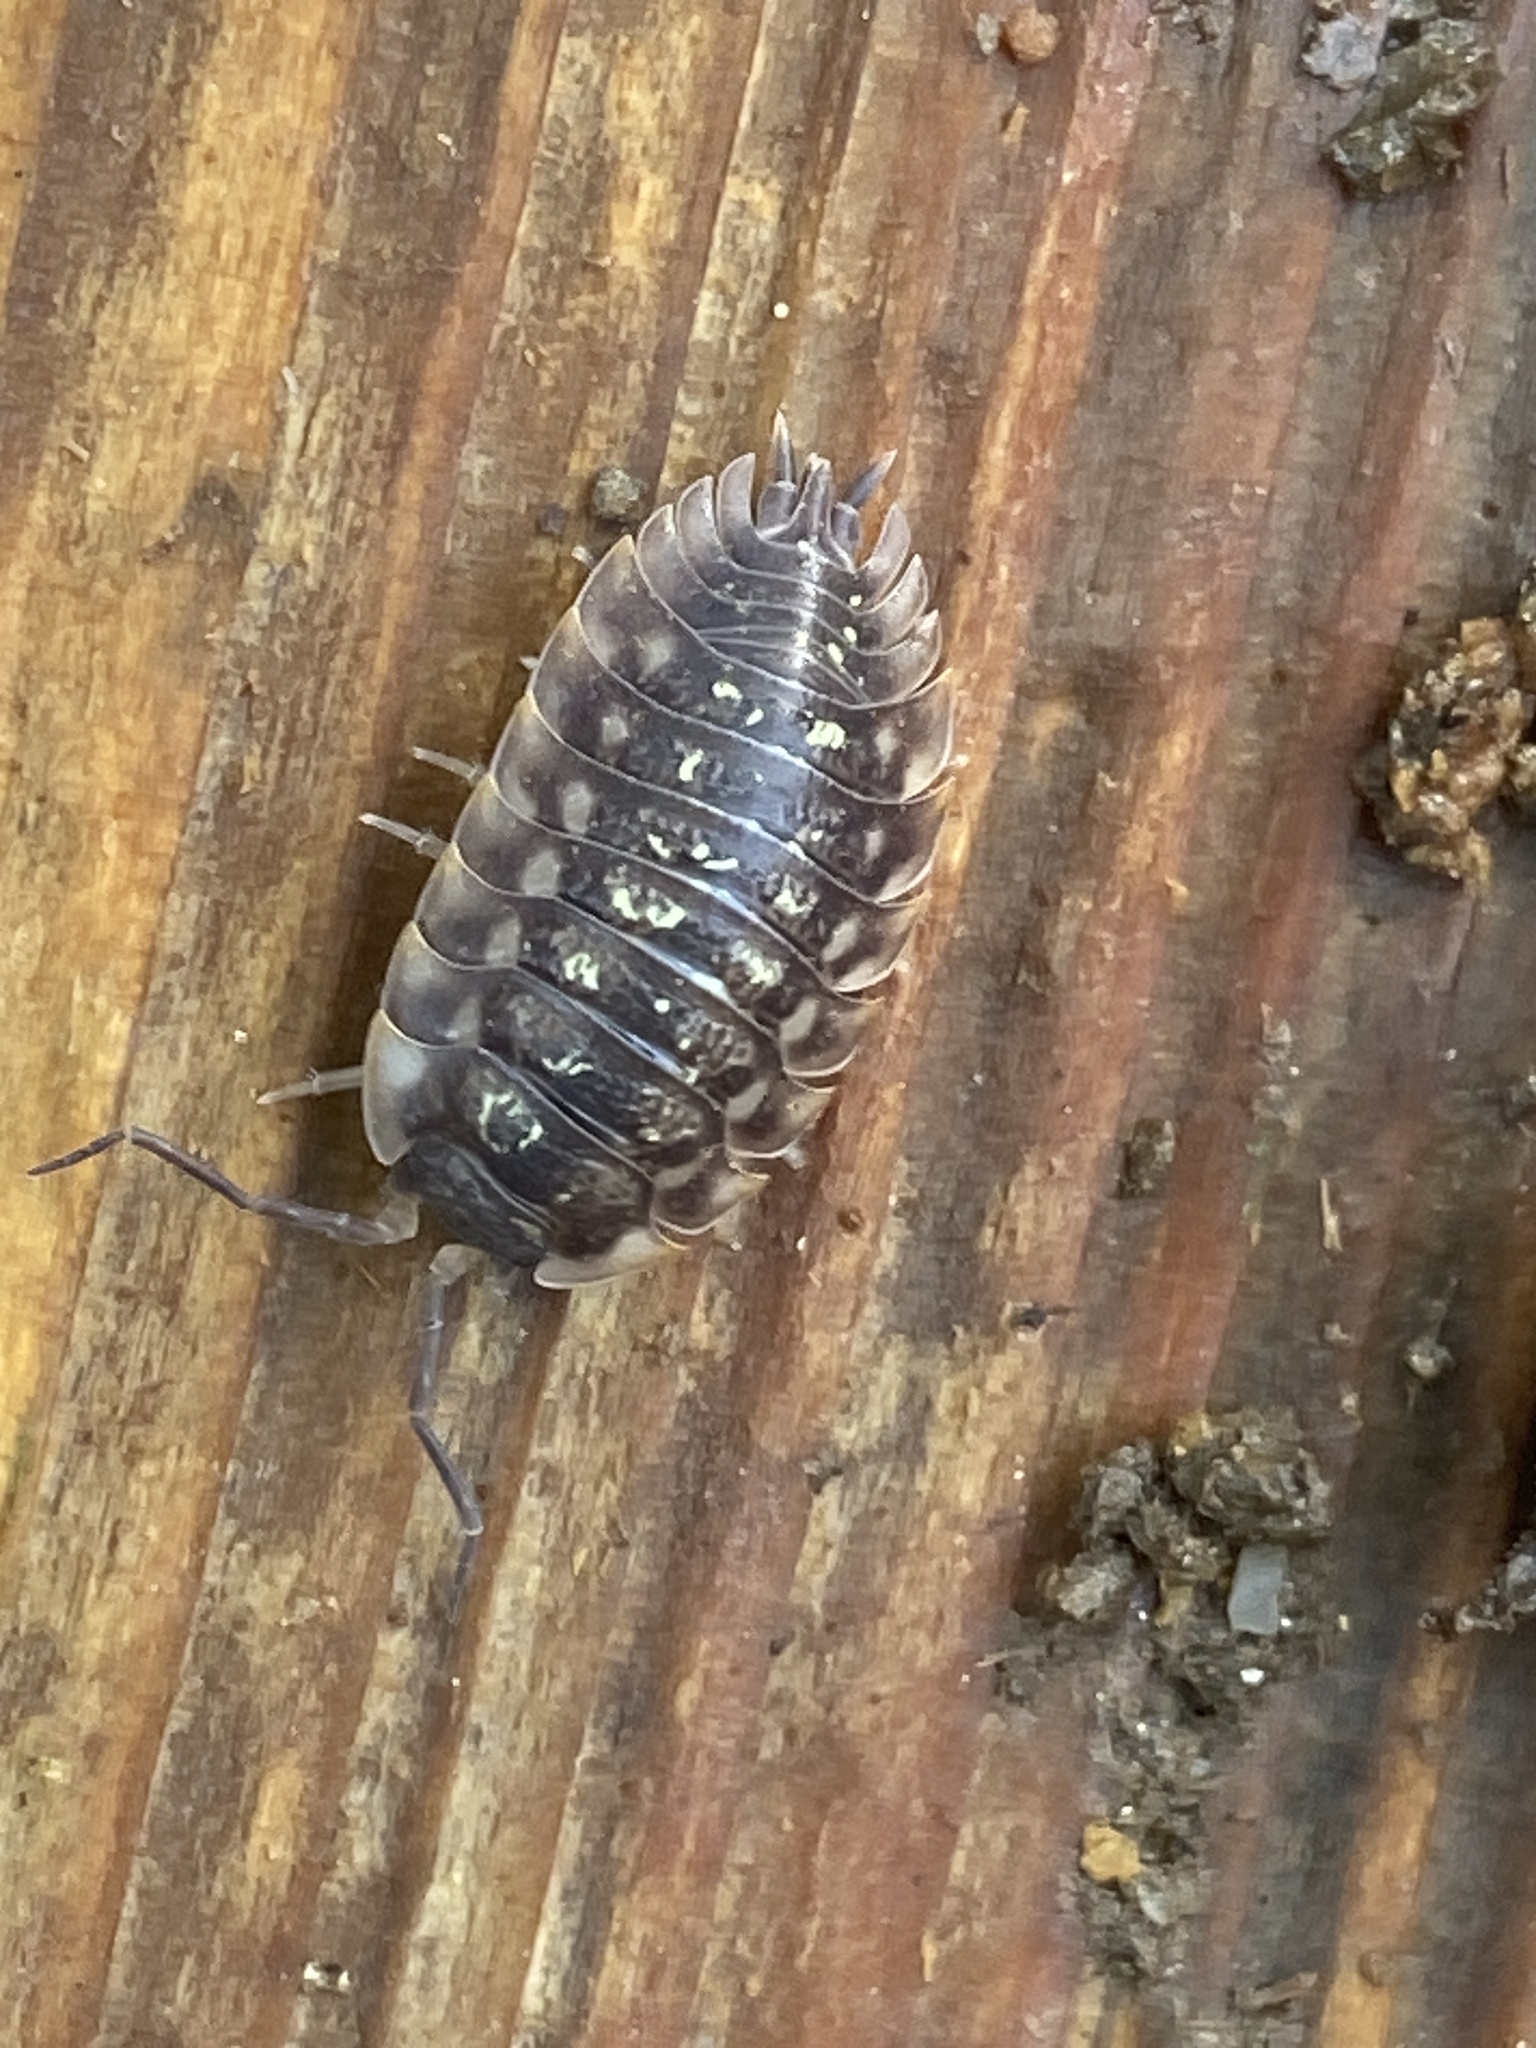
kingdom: Animalia
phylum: Arthropoda
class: Malacostraca
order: Isopoda
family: Oniscidae
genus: Oniscus
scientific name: Oniscus asellus
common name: Common shiny woodlouse
